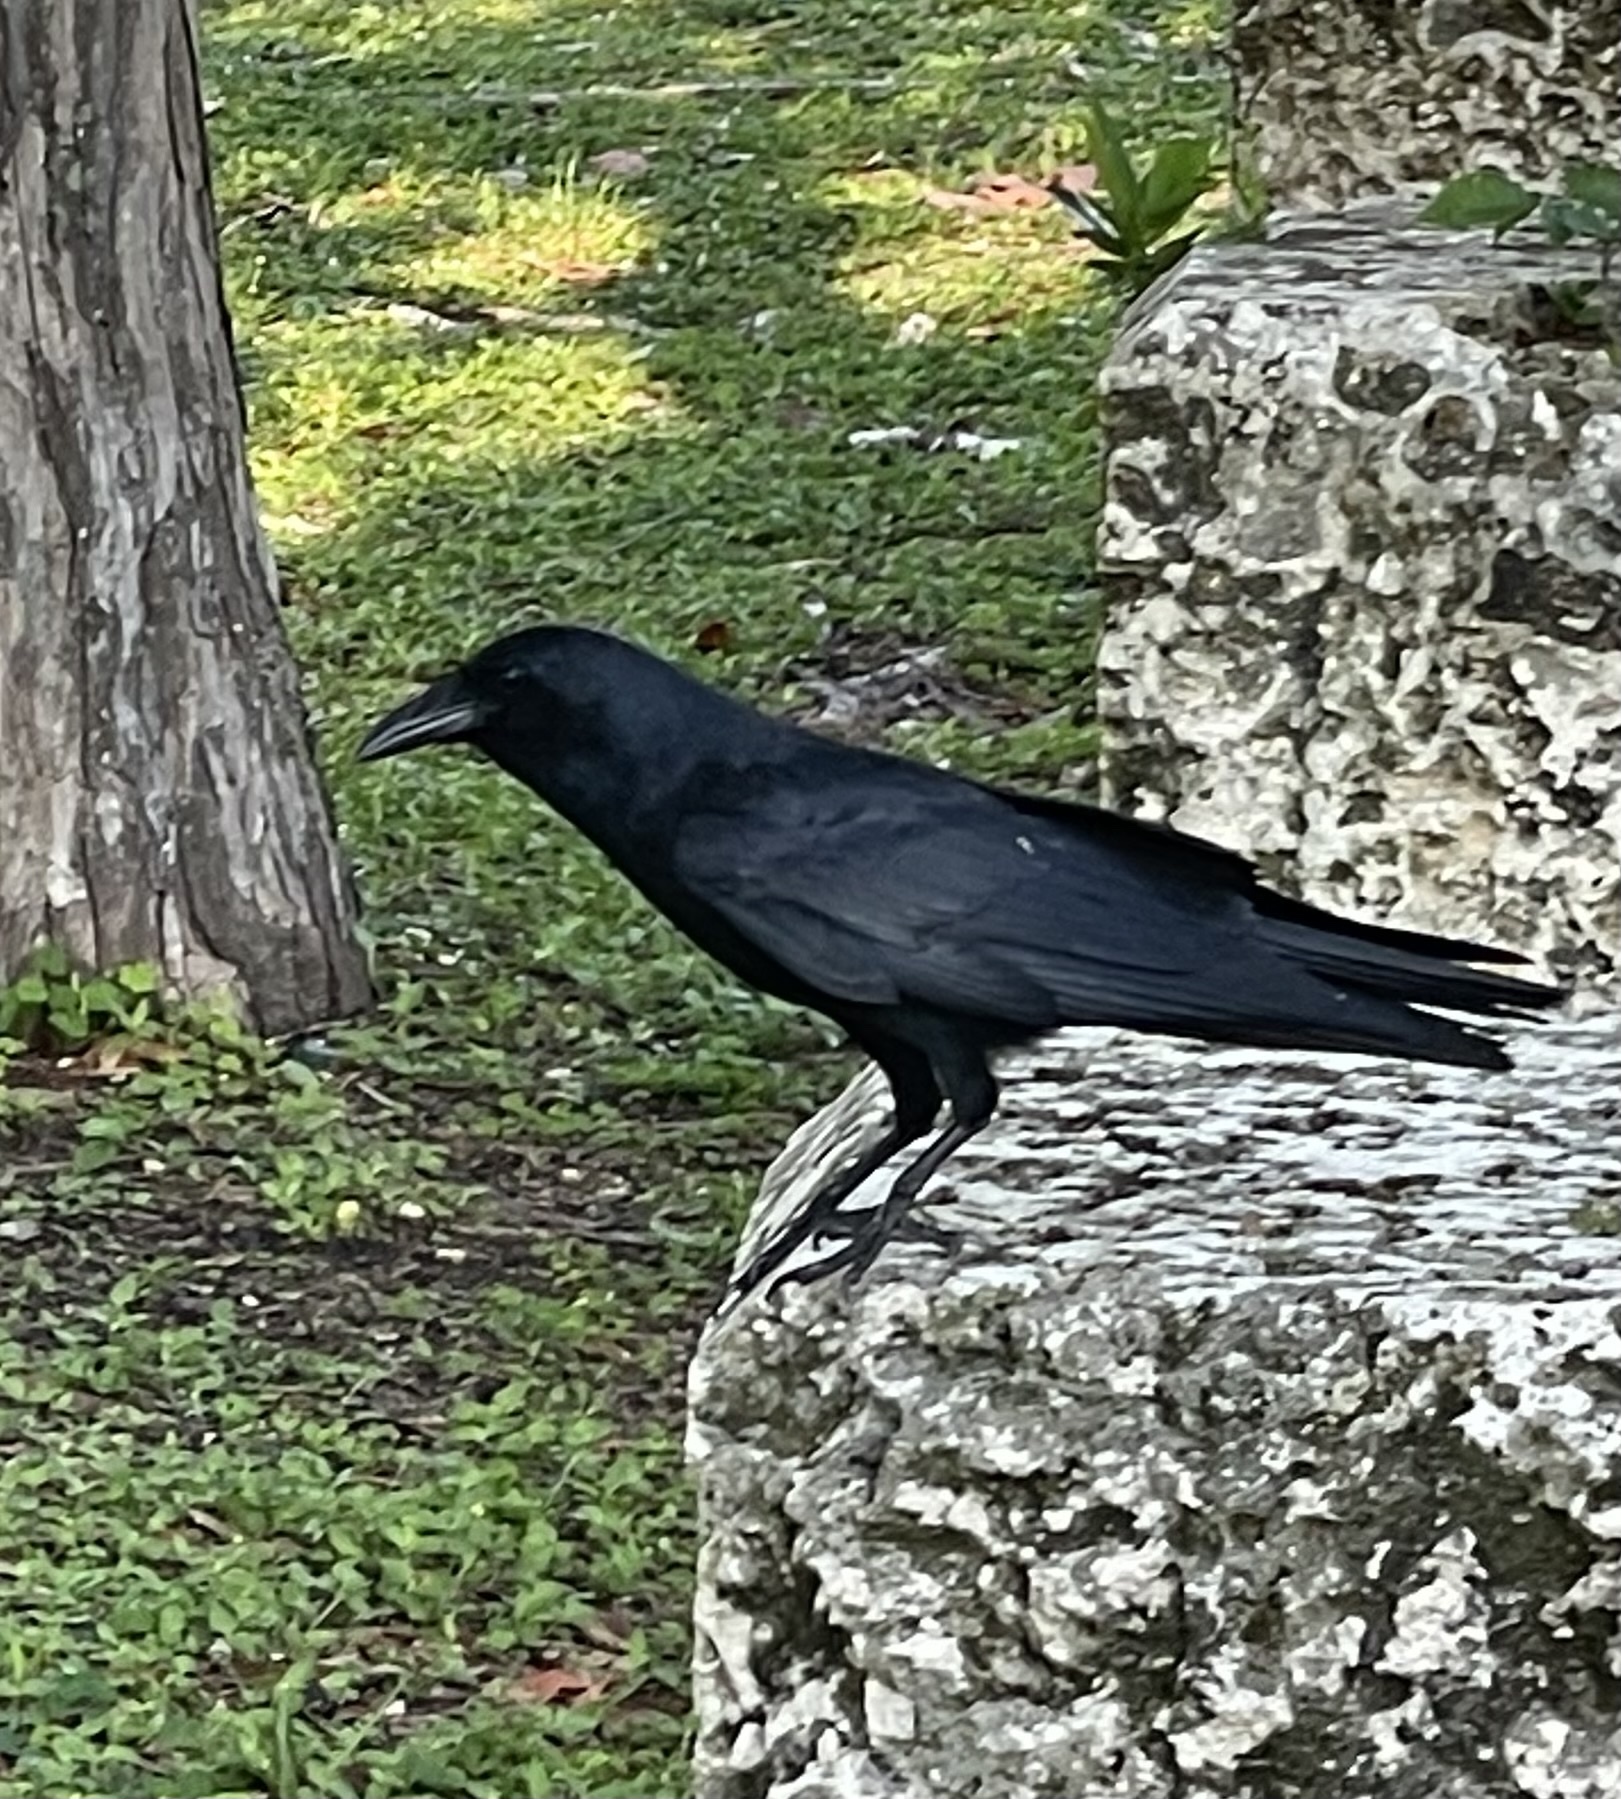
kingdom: Animalia
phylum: Chordata
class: Aves
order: Passeriformes
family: Corvidae
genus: Corvus
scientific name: Corvus ossifragus
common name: Fish crow
